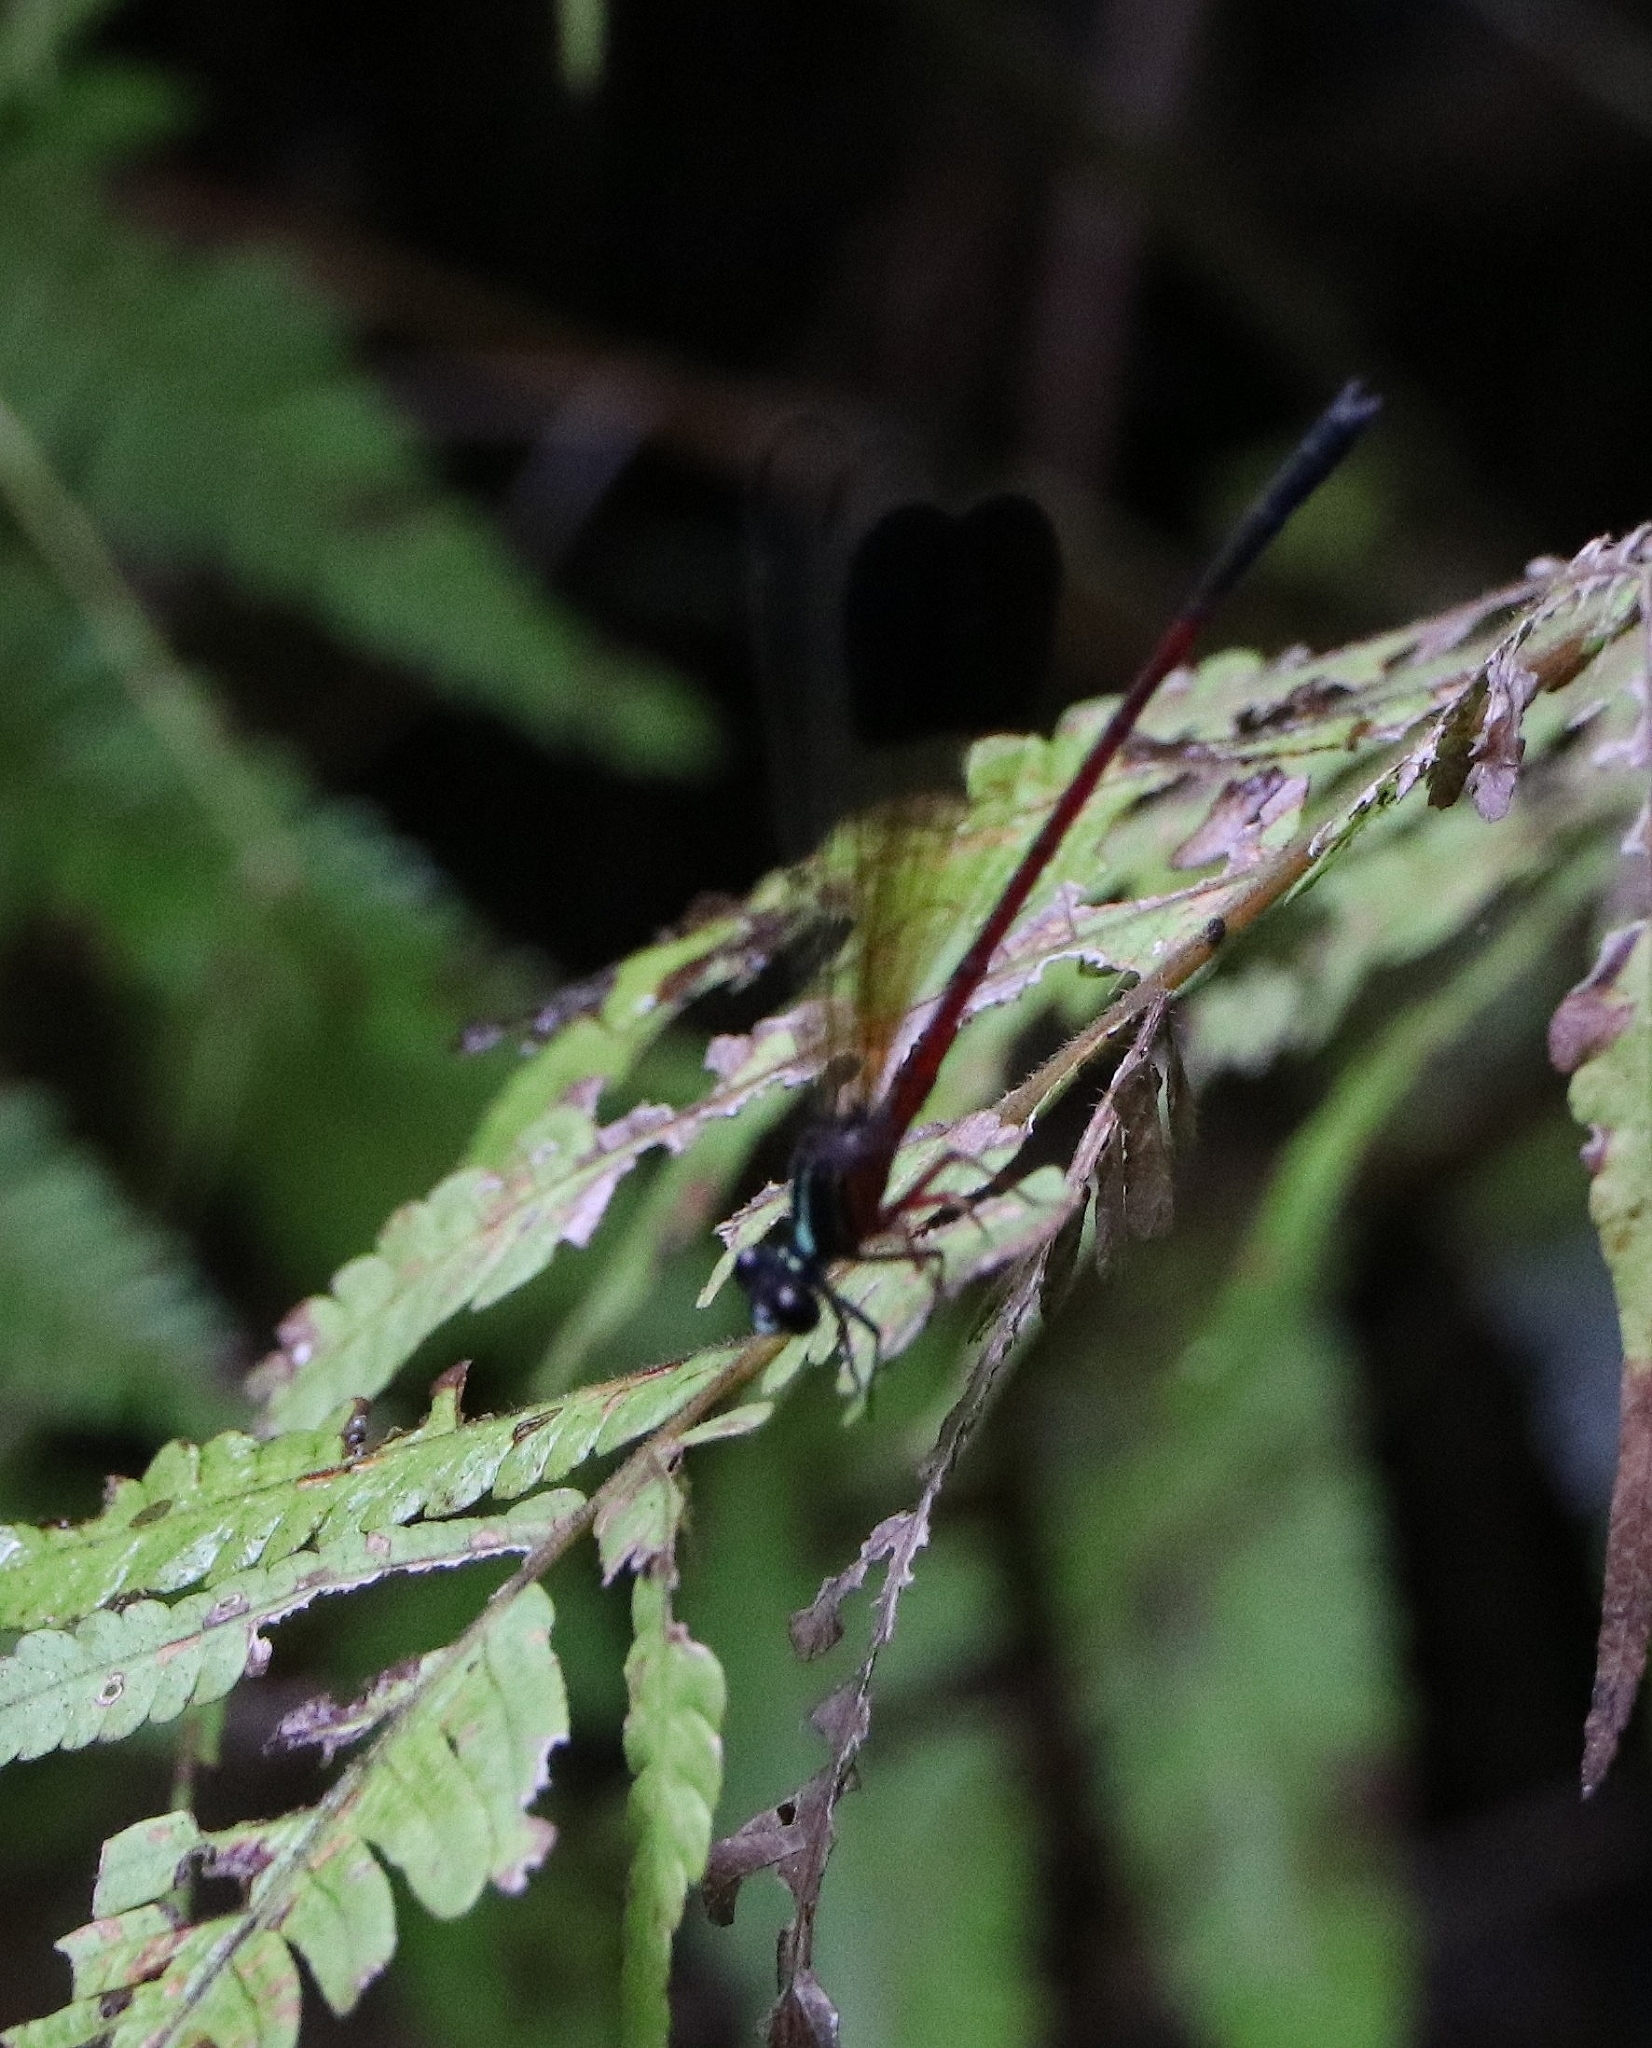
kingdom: Animalia
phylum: Arthropoda
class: Insecta
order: Odonata
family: Euphaeidae
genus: Euphaea
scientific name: Euphaea fraseri
